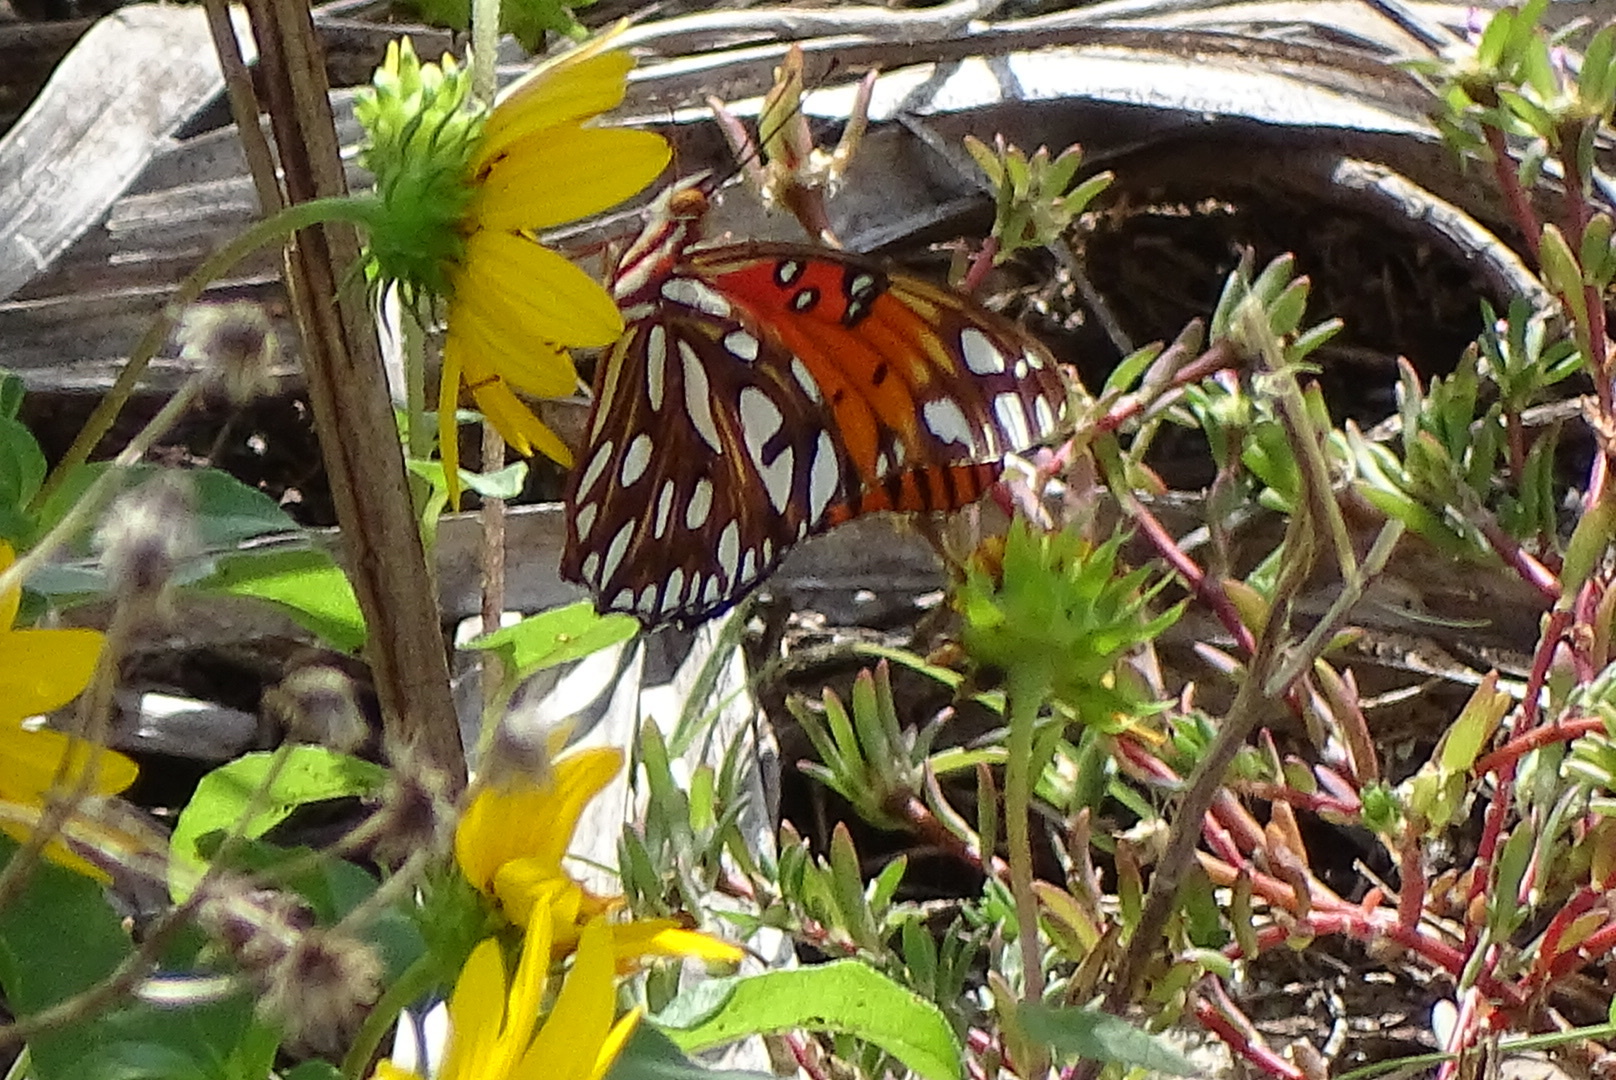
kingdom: Animalia
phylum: Arthropoda
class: Insecta
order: Lepidoptera
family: Nymphalidae
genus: Dione
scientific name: Dione vanillae
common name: Gulf fritillary
